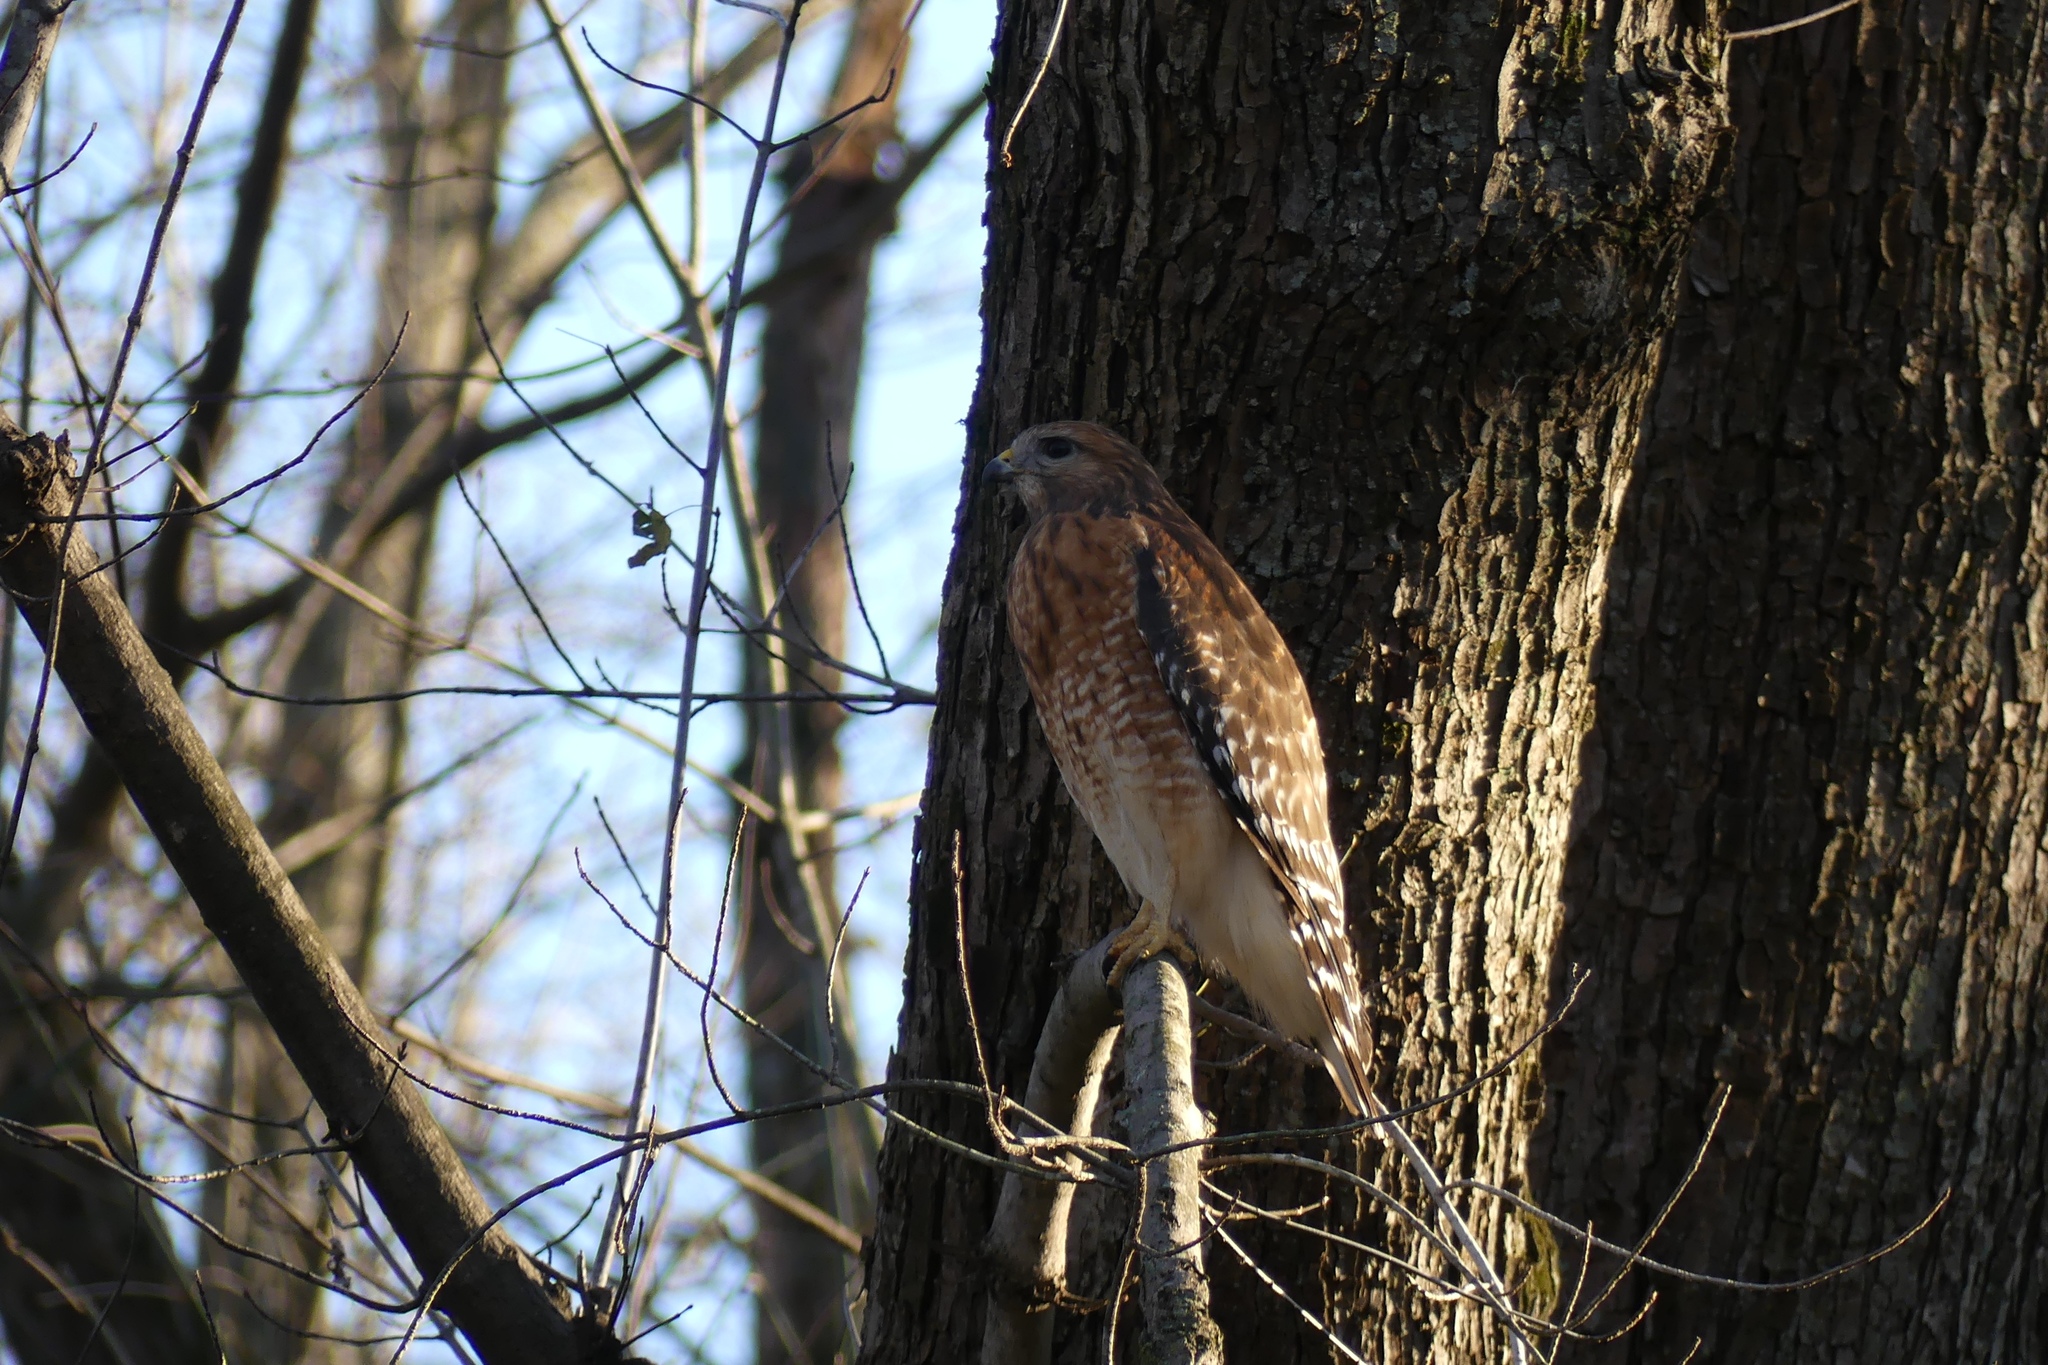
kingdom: Animalia
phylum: Chordata
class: Aves
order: Accipitriformes
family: Accipitridae
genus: Buteo
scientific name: Buteo lineatus
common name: Red-shouldered hawk
